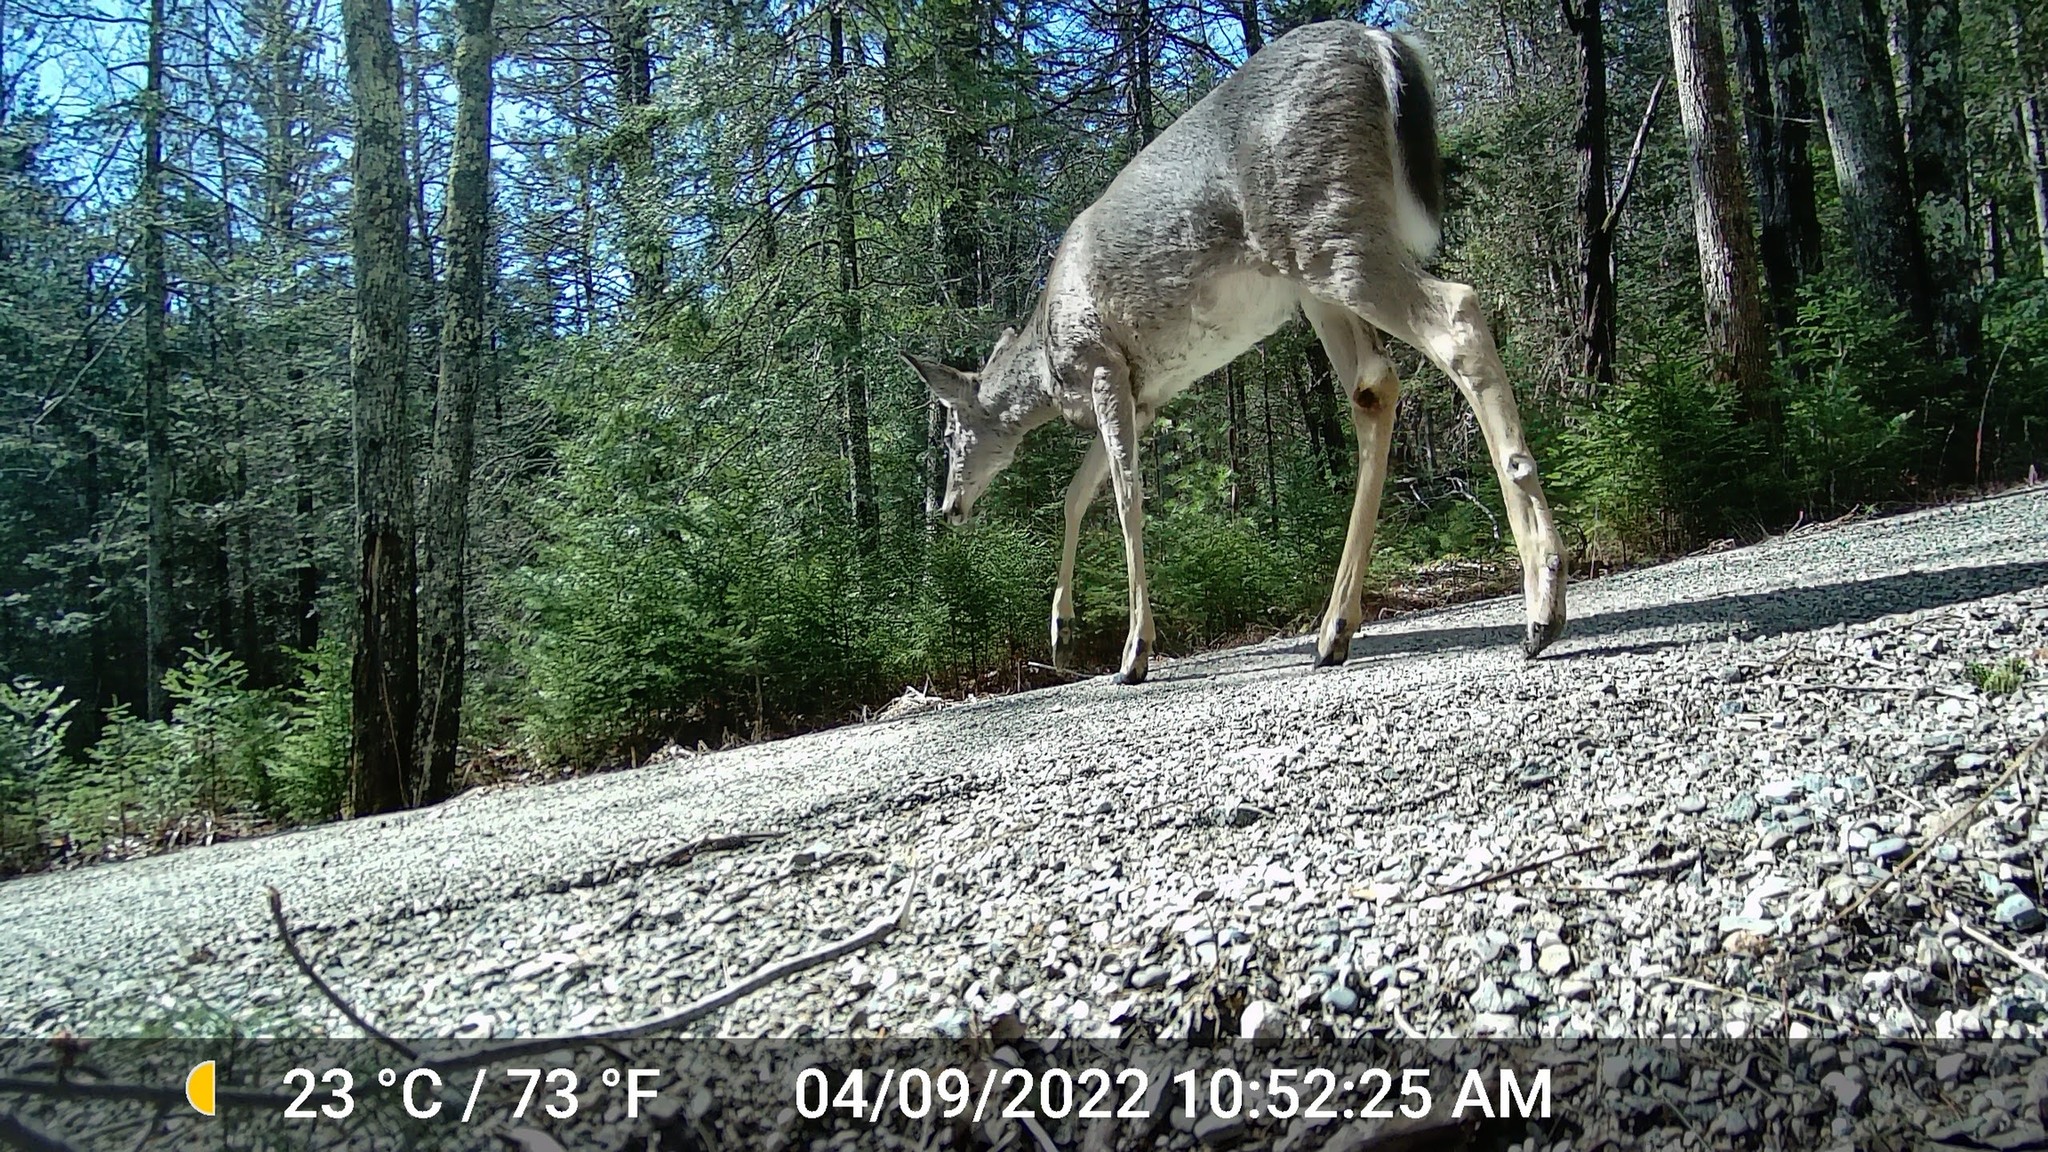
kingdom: Animalia
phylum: Chordata
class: Mammalia
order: Artiodactyla
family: Cervidae
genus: Odocoileus
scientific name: Odocoileus virginianus
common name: White-tailed deer
